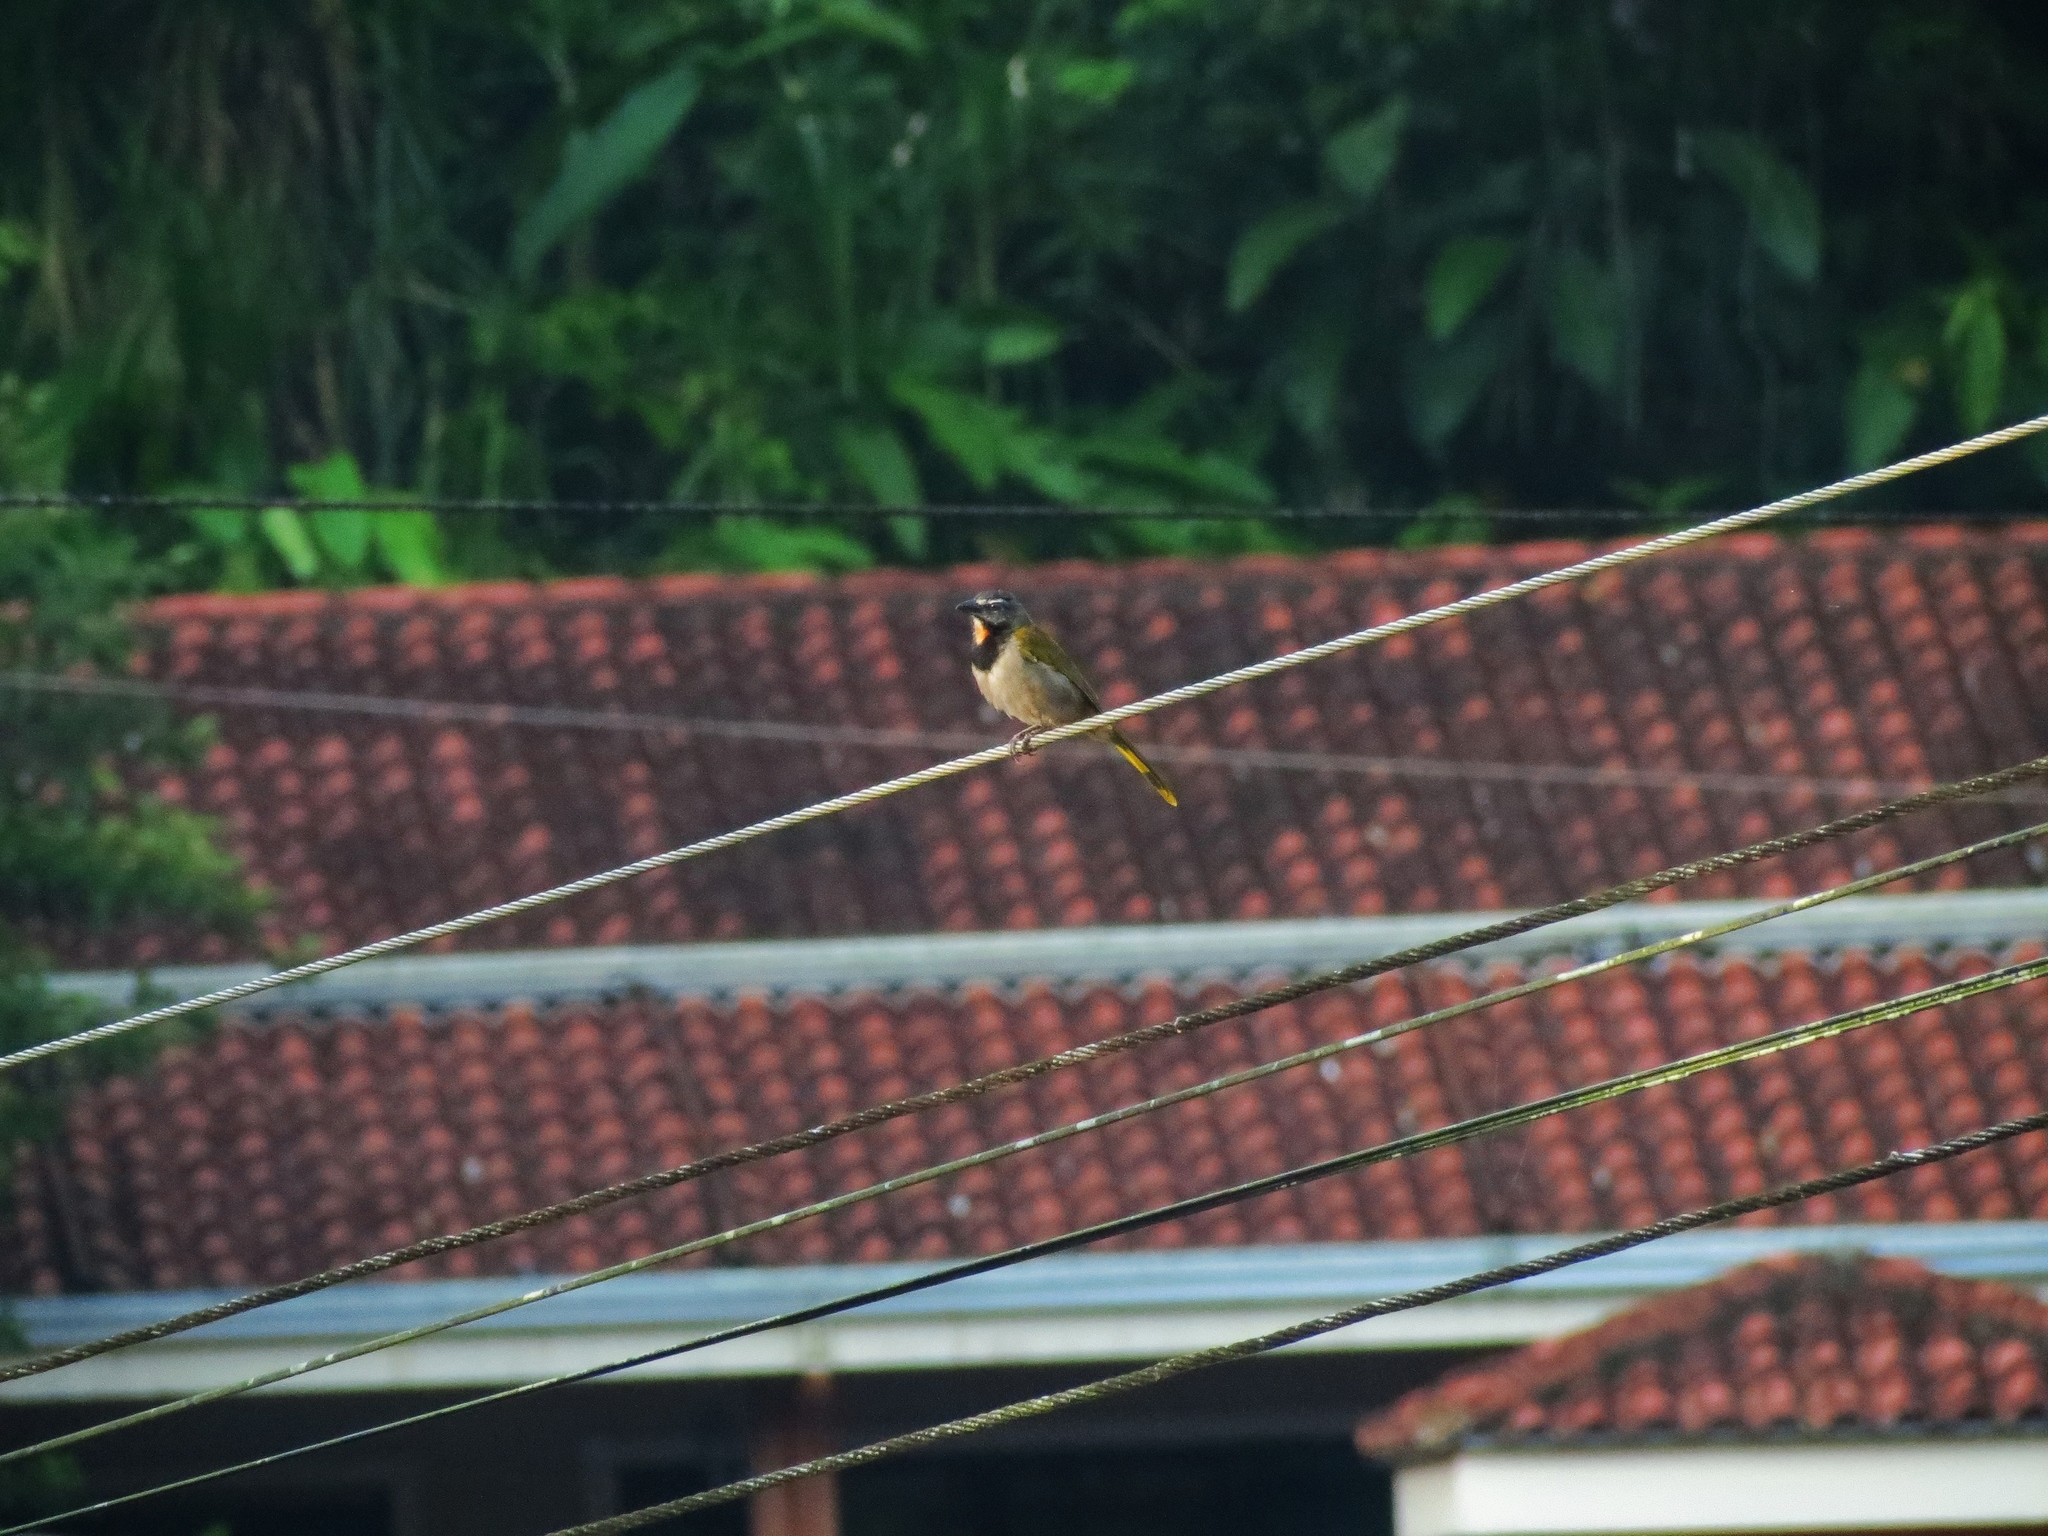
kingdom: Animalia
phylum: Chordata
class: Aves
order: Passeriformes
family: Thraupidae
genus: Saltator
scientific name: Saltator maximus
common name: Buff-throated saltator
